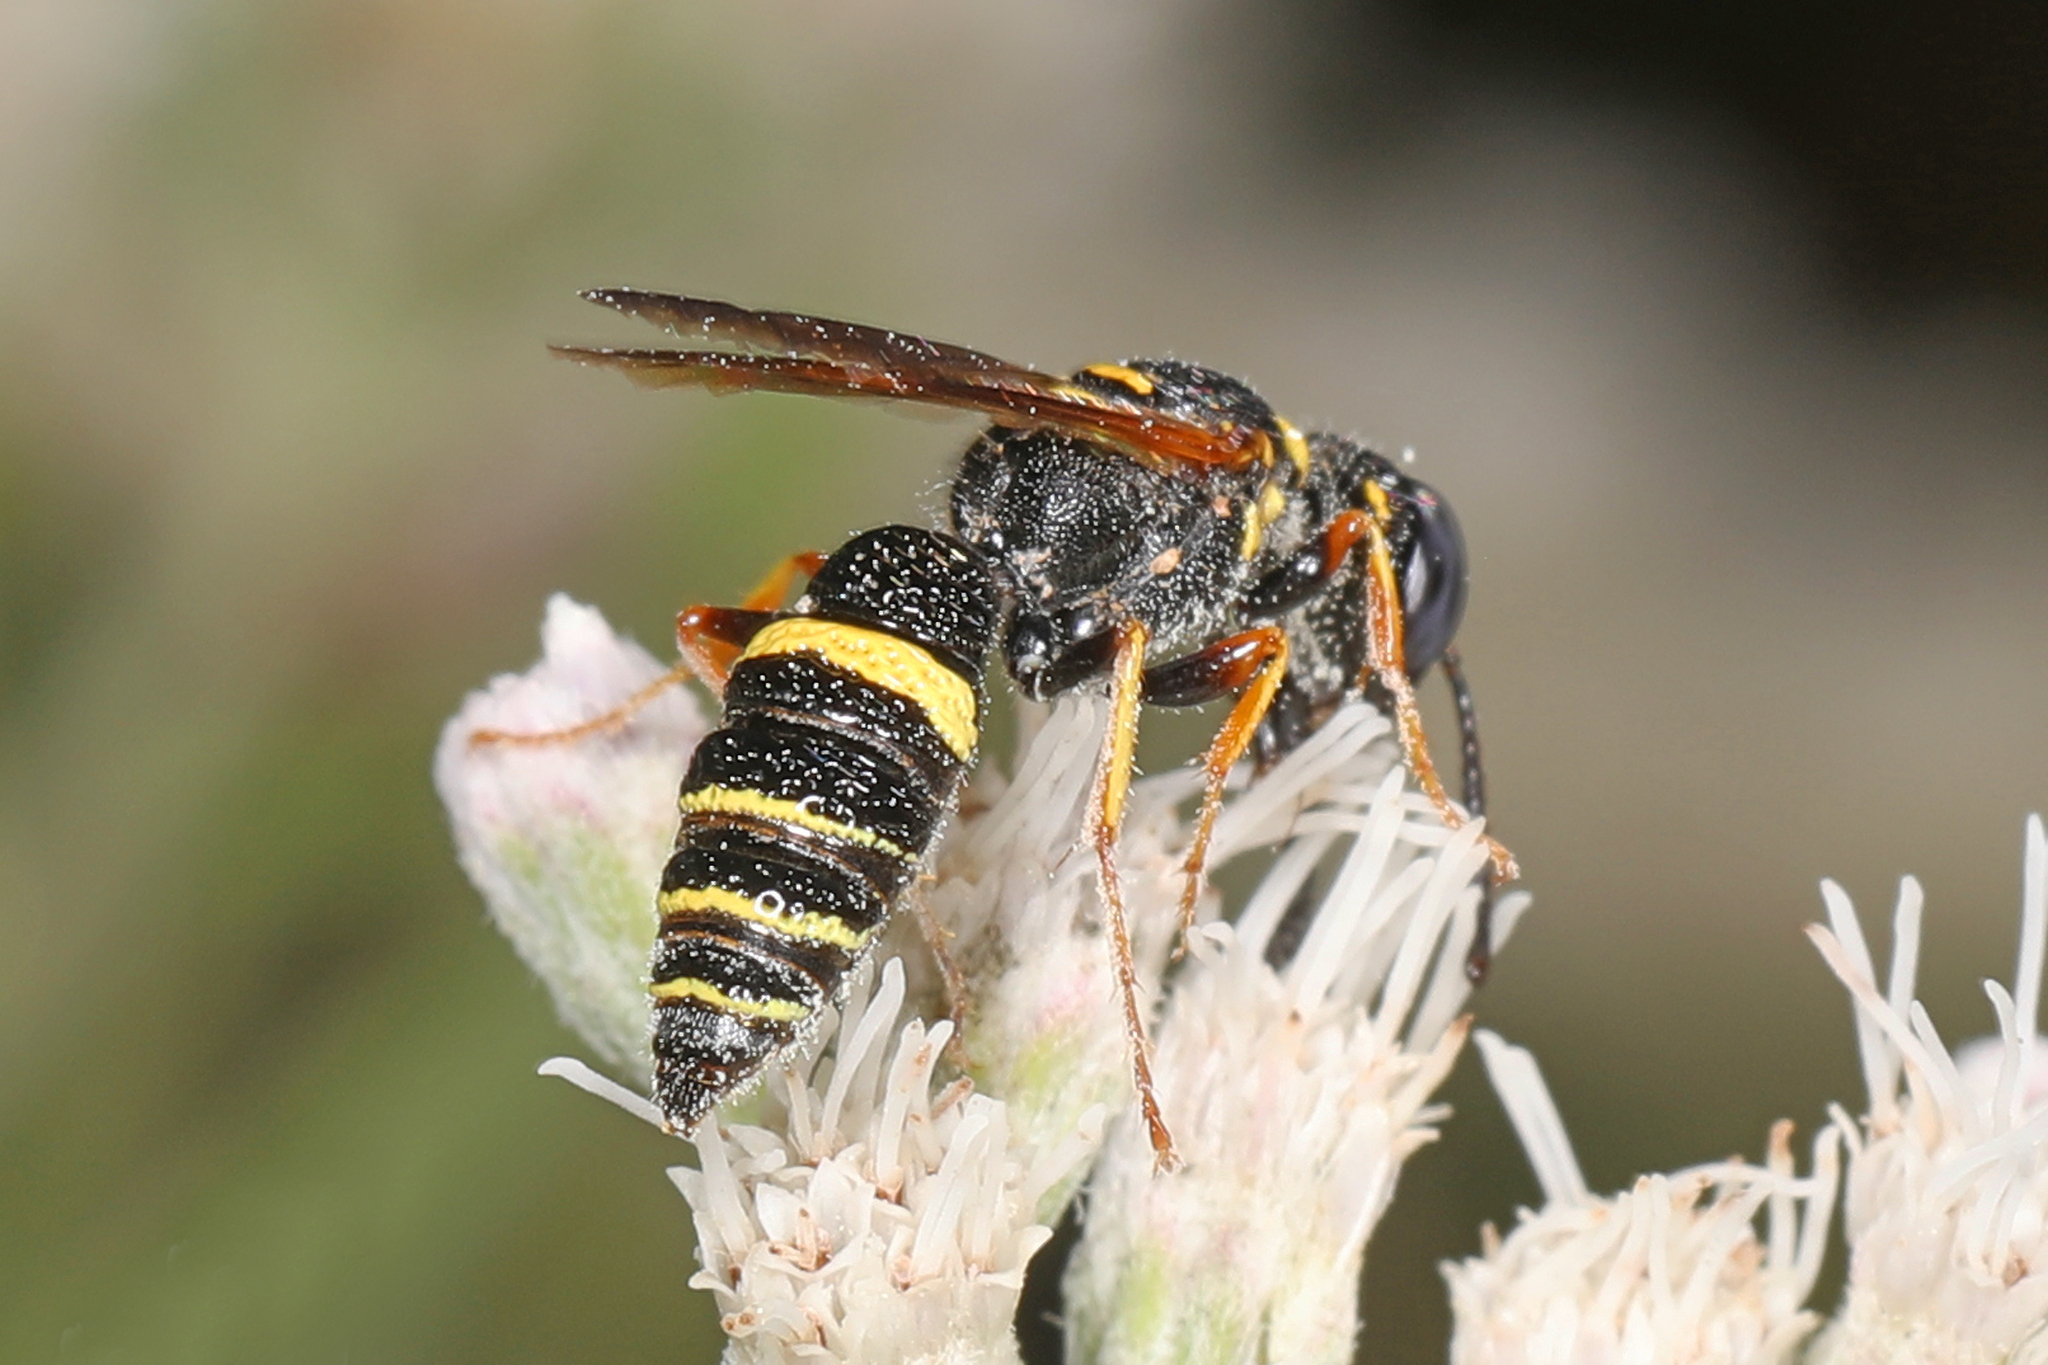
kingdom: Animalia
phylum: Arthropoda
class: Insecta
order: Hymenoptera
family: Crabronidae
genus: Philanthus
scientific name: Philanthus gibbosus
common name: Humped beewolf
